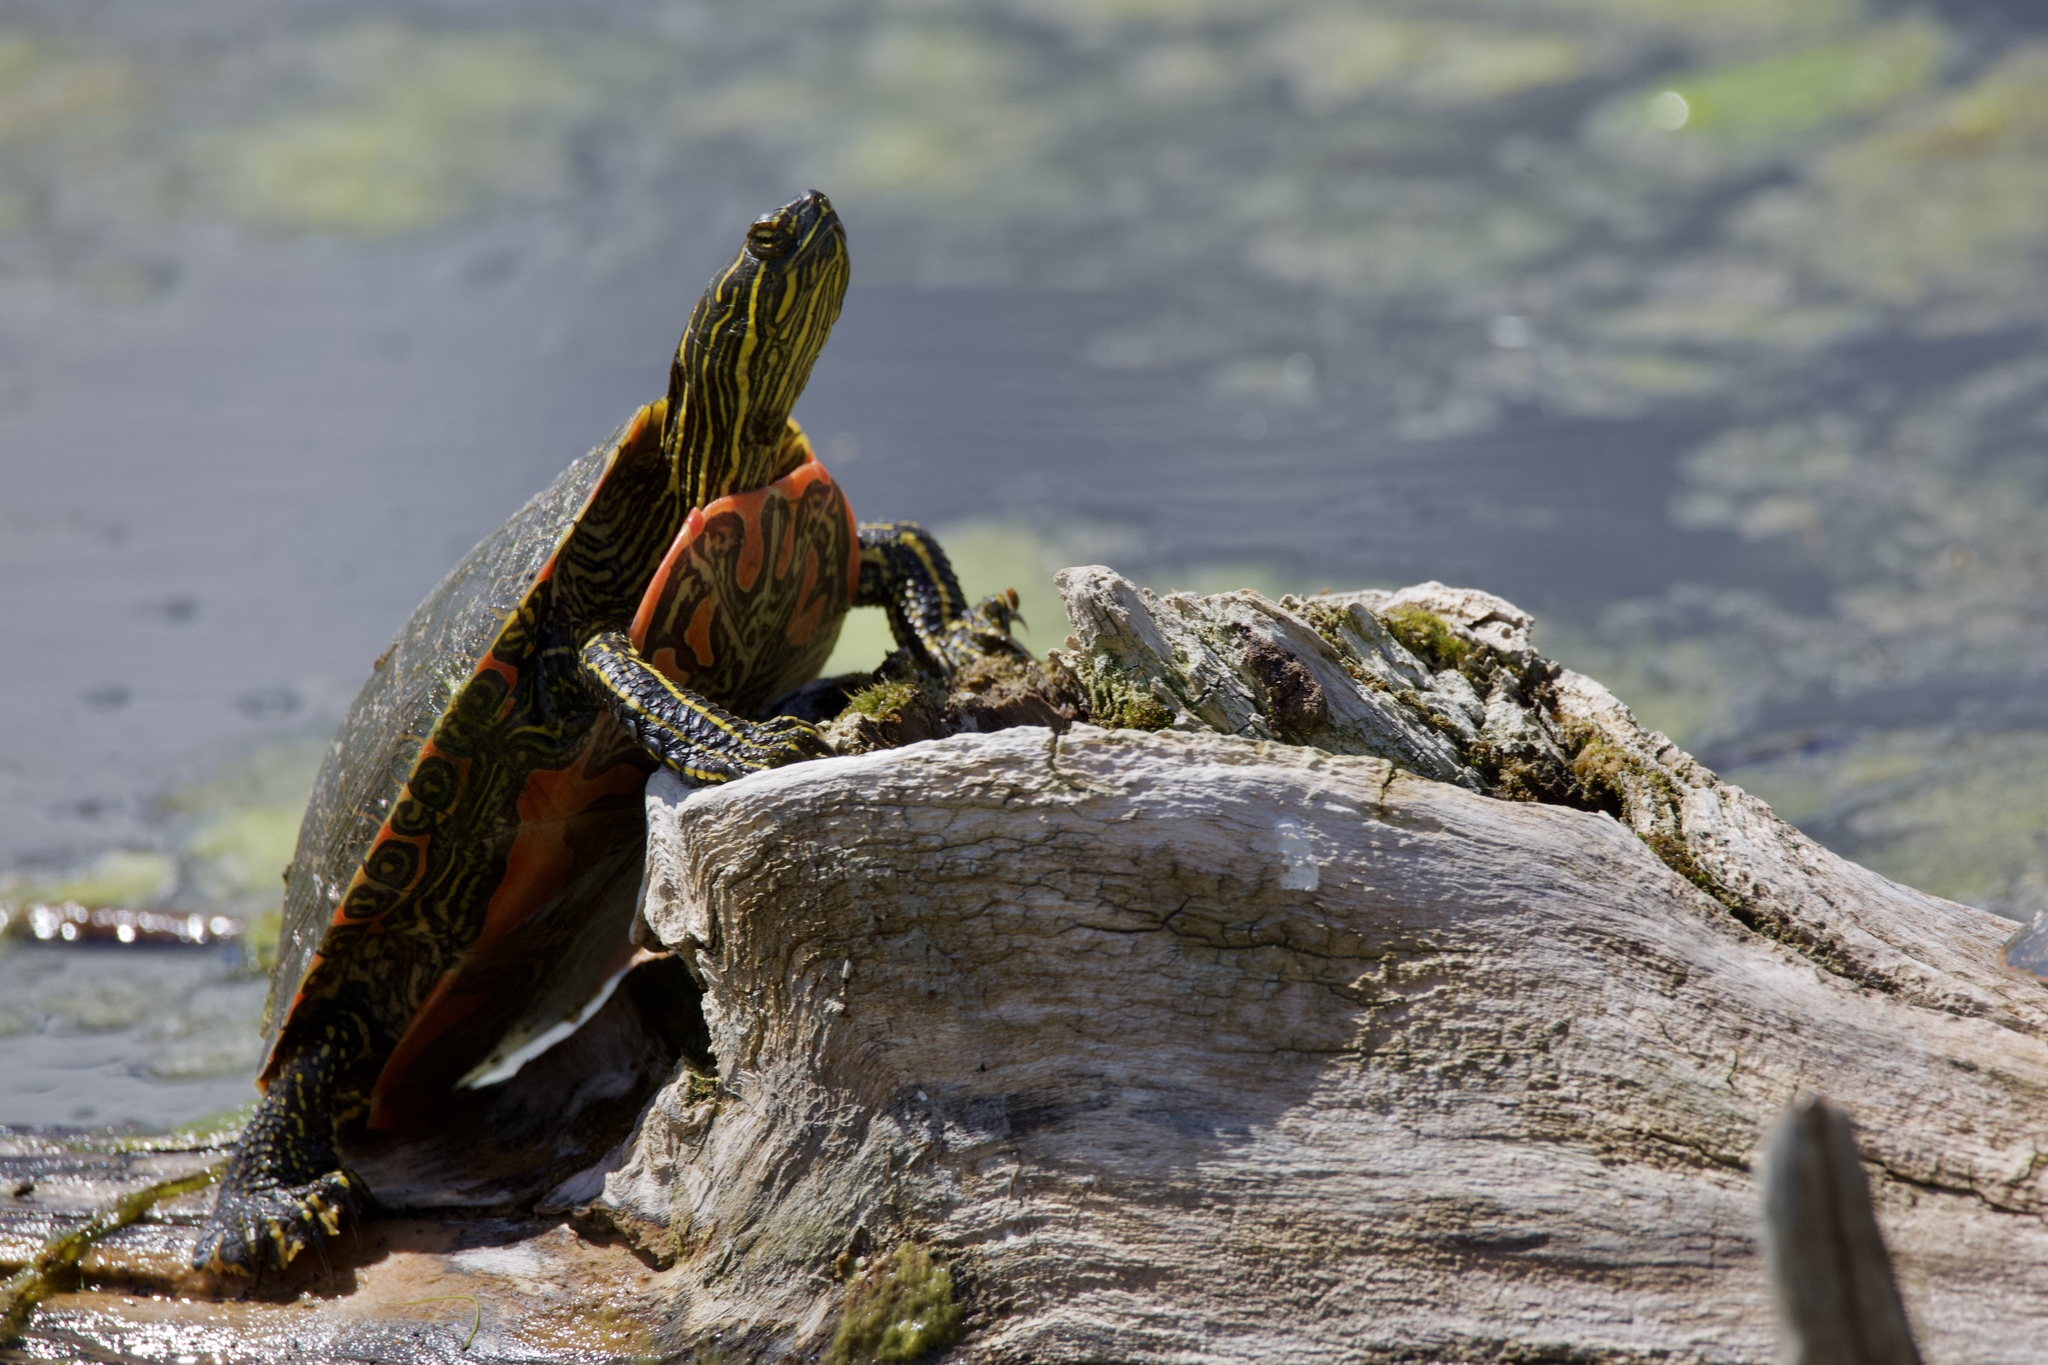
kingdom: Animalia
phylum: Chordata
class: Testudines
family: Emydidae
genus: Chrysemys
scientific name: Chrysemys picta
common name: Painted turtle
